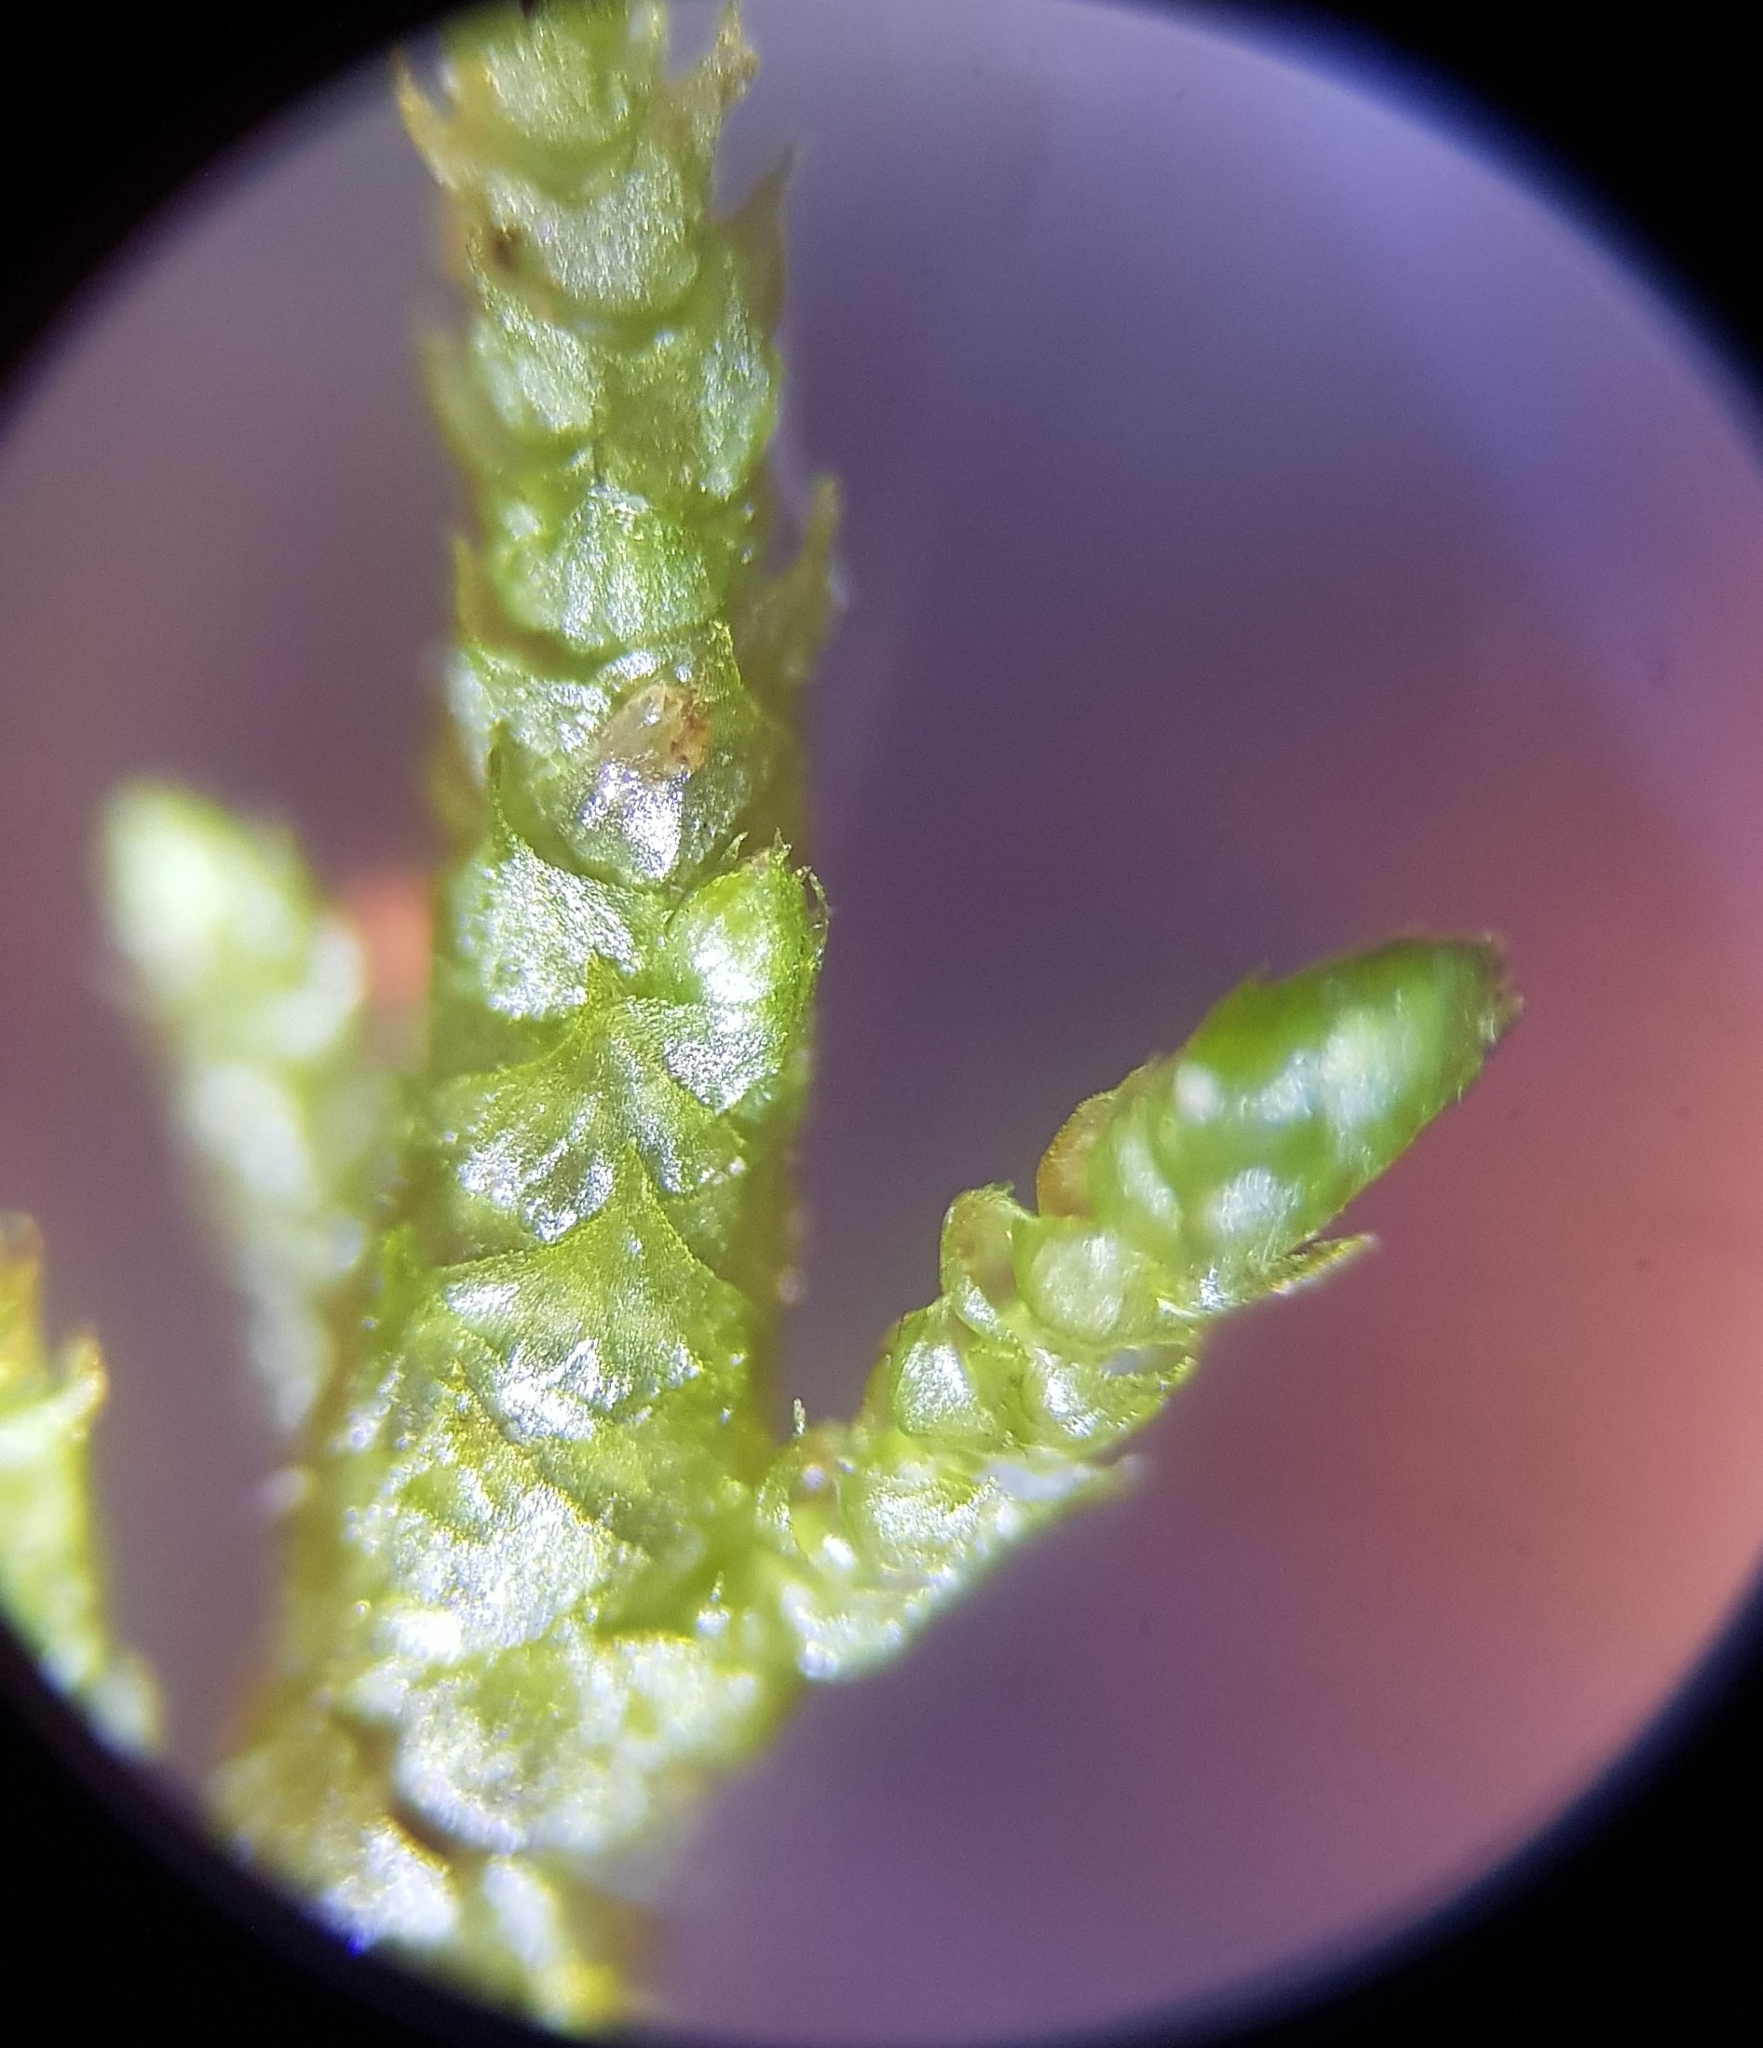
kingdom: Plantae
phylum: Bryophyta
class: Bryopsida
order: Hypnales
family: Myuriaceae
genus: Hyocomium
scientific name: Hyocomium armoricum
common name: Flagellate feather-moss
